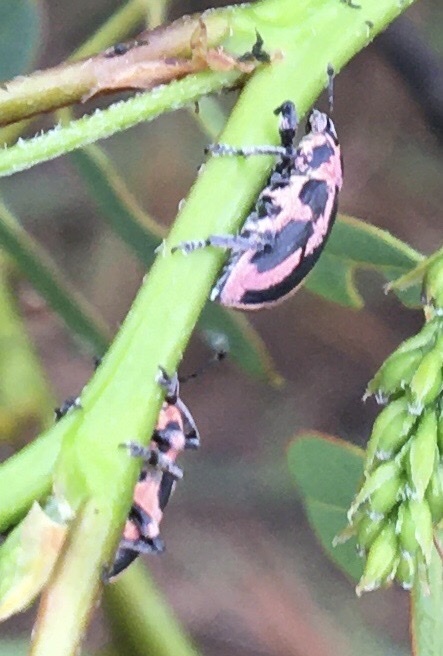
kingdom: Animalia
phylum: Arthropoda
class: Insecta
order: Coleoptera
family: Curculionidae
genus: Eudiagogus
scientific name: Eudiagogus pulcher
